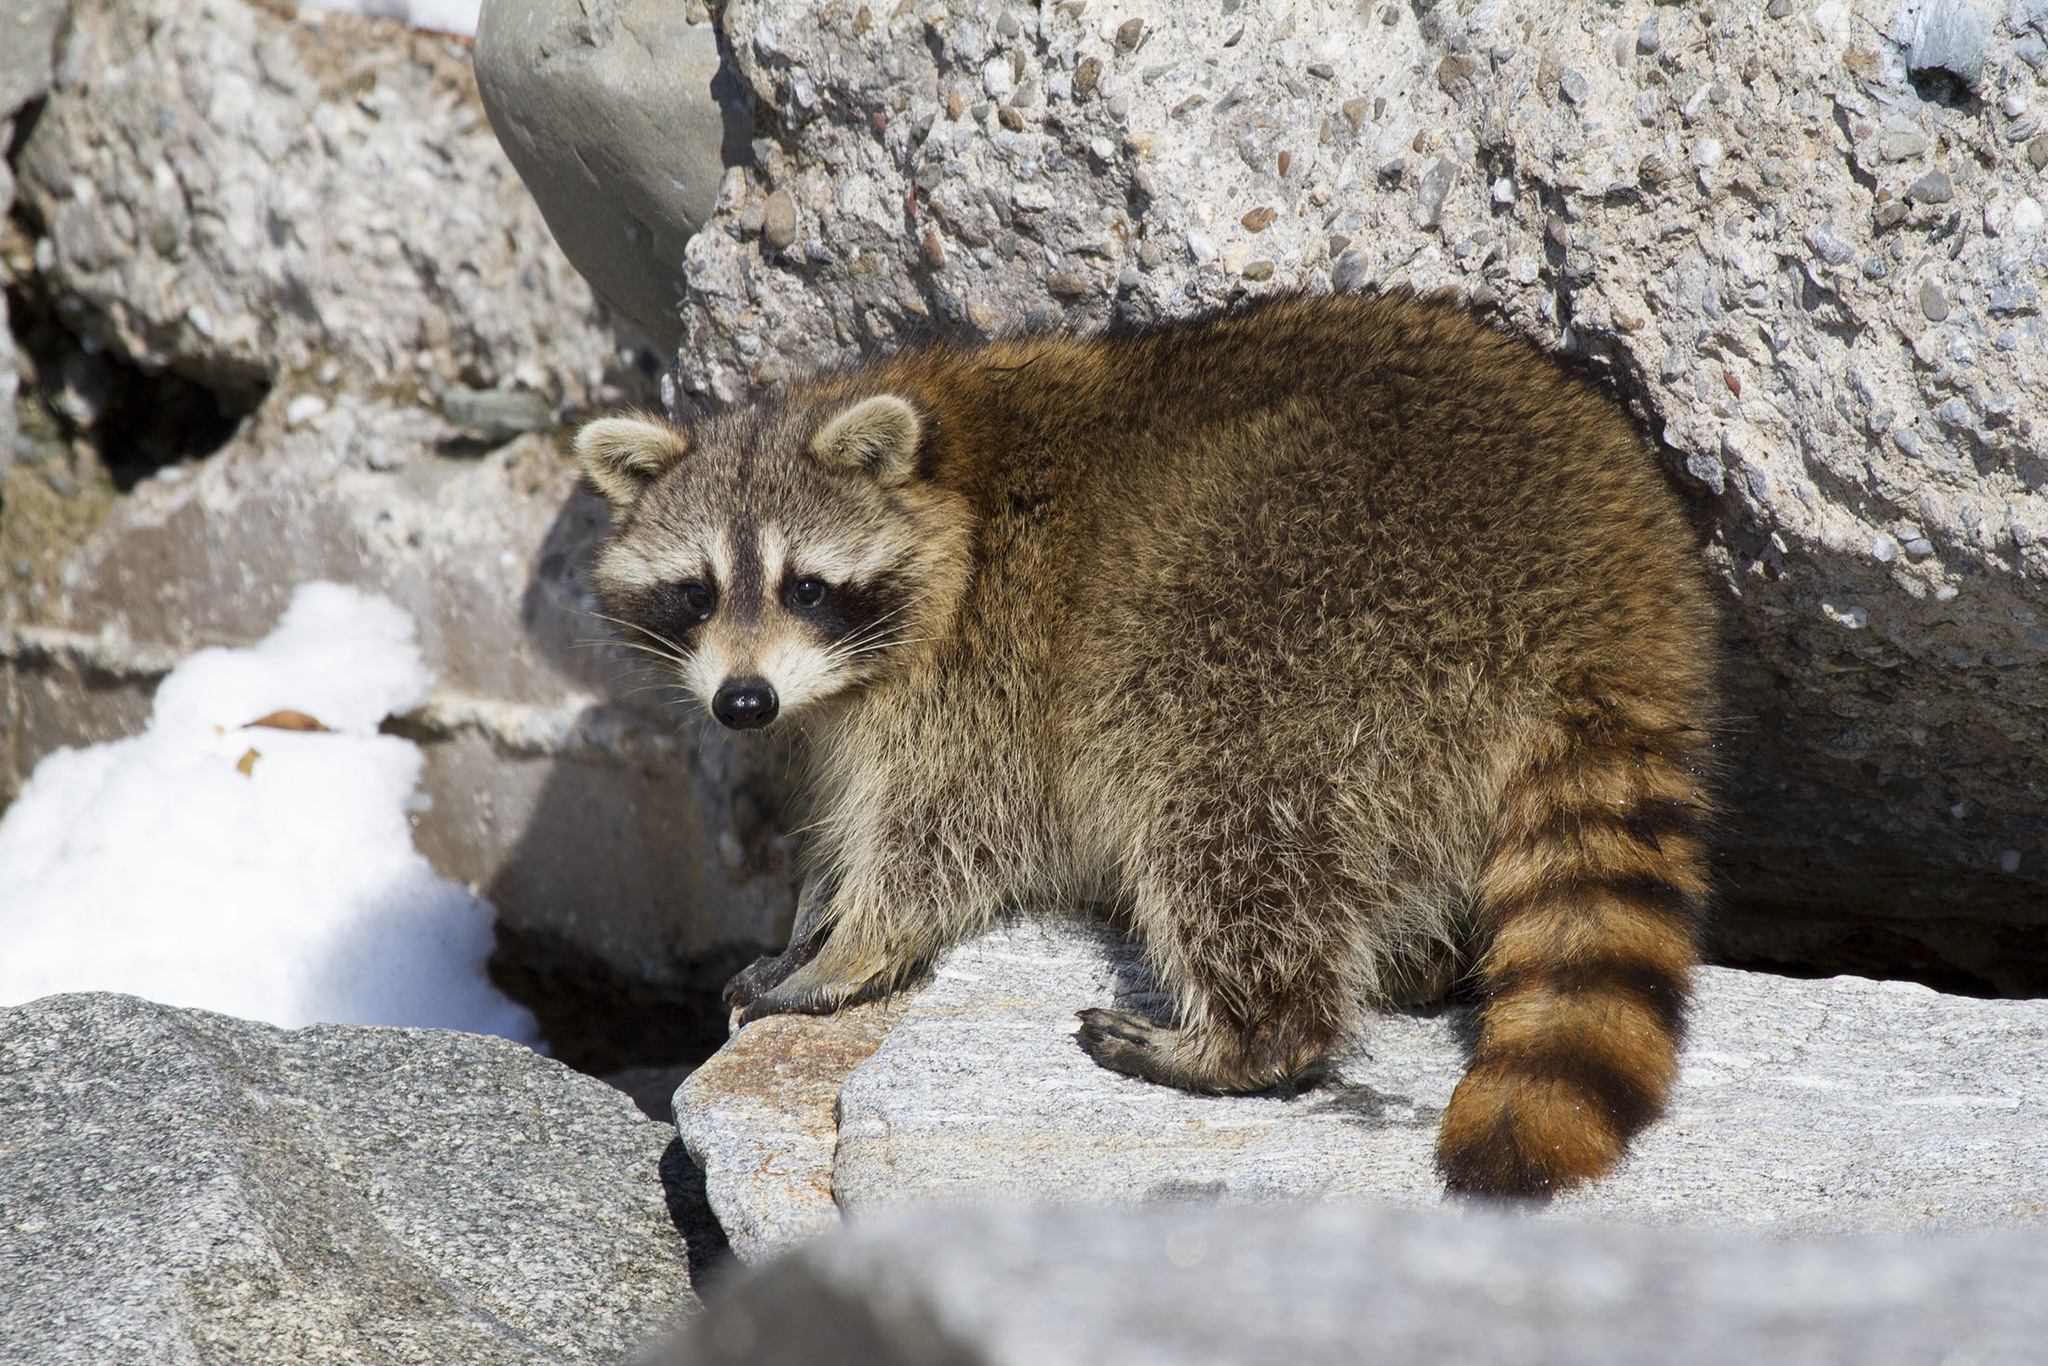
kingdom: Animalia
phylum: Chordata
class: Mammalia
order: Carnivora
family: Procyonidae
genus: Procyon
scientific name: Procyon lotor
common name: Raccoon
